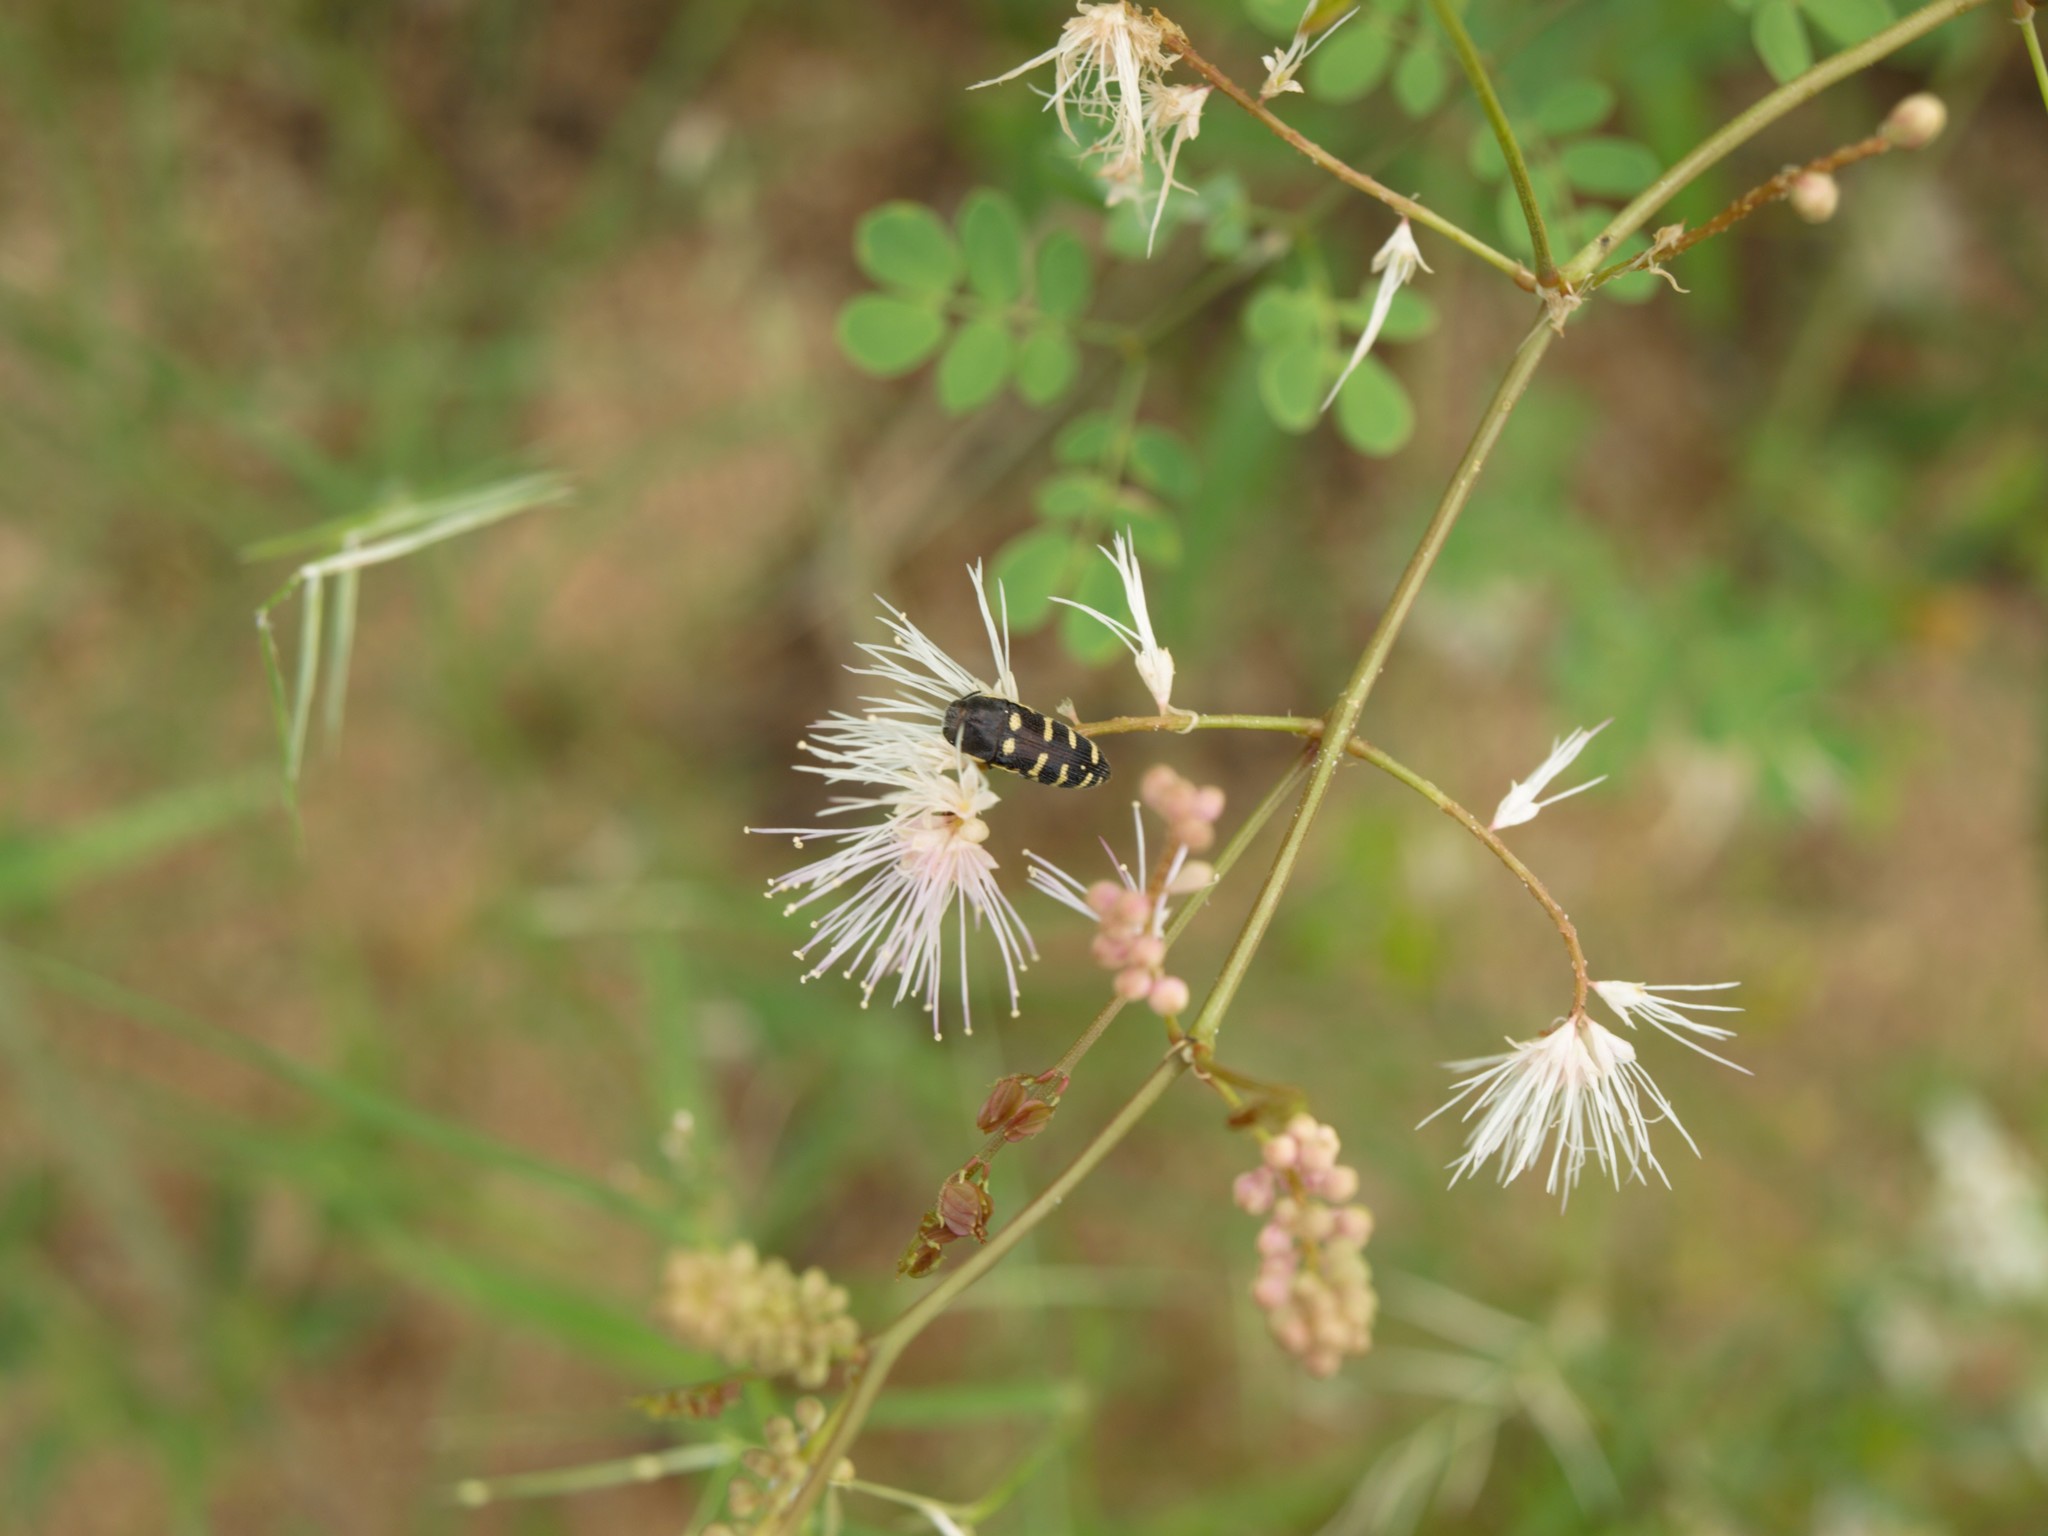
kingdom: Animalia
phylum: Arthropoda
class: Insecta
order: Coleoptera
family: Buprestidae
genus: Acmaeodera
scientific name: Acmaeodera alicia
